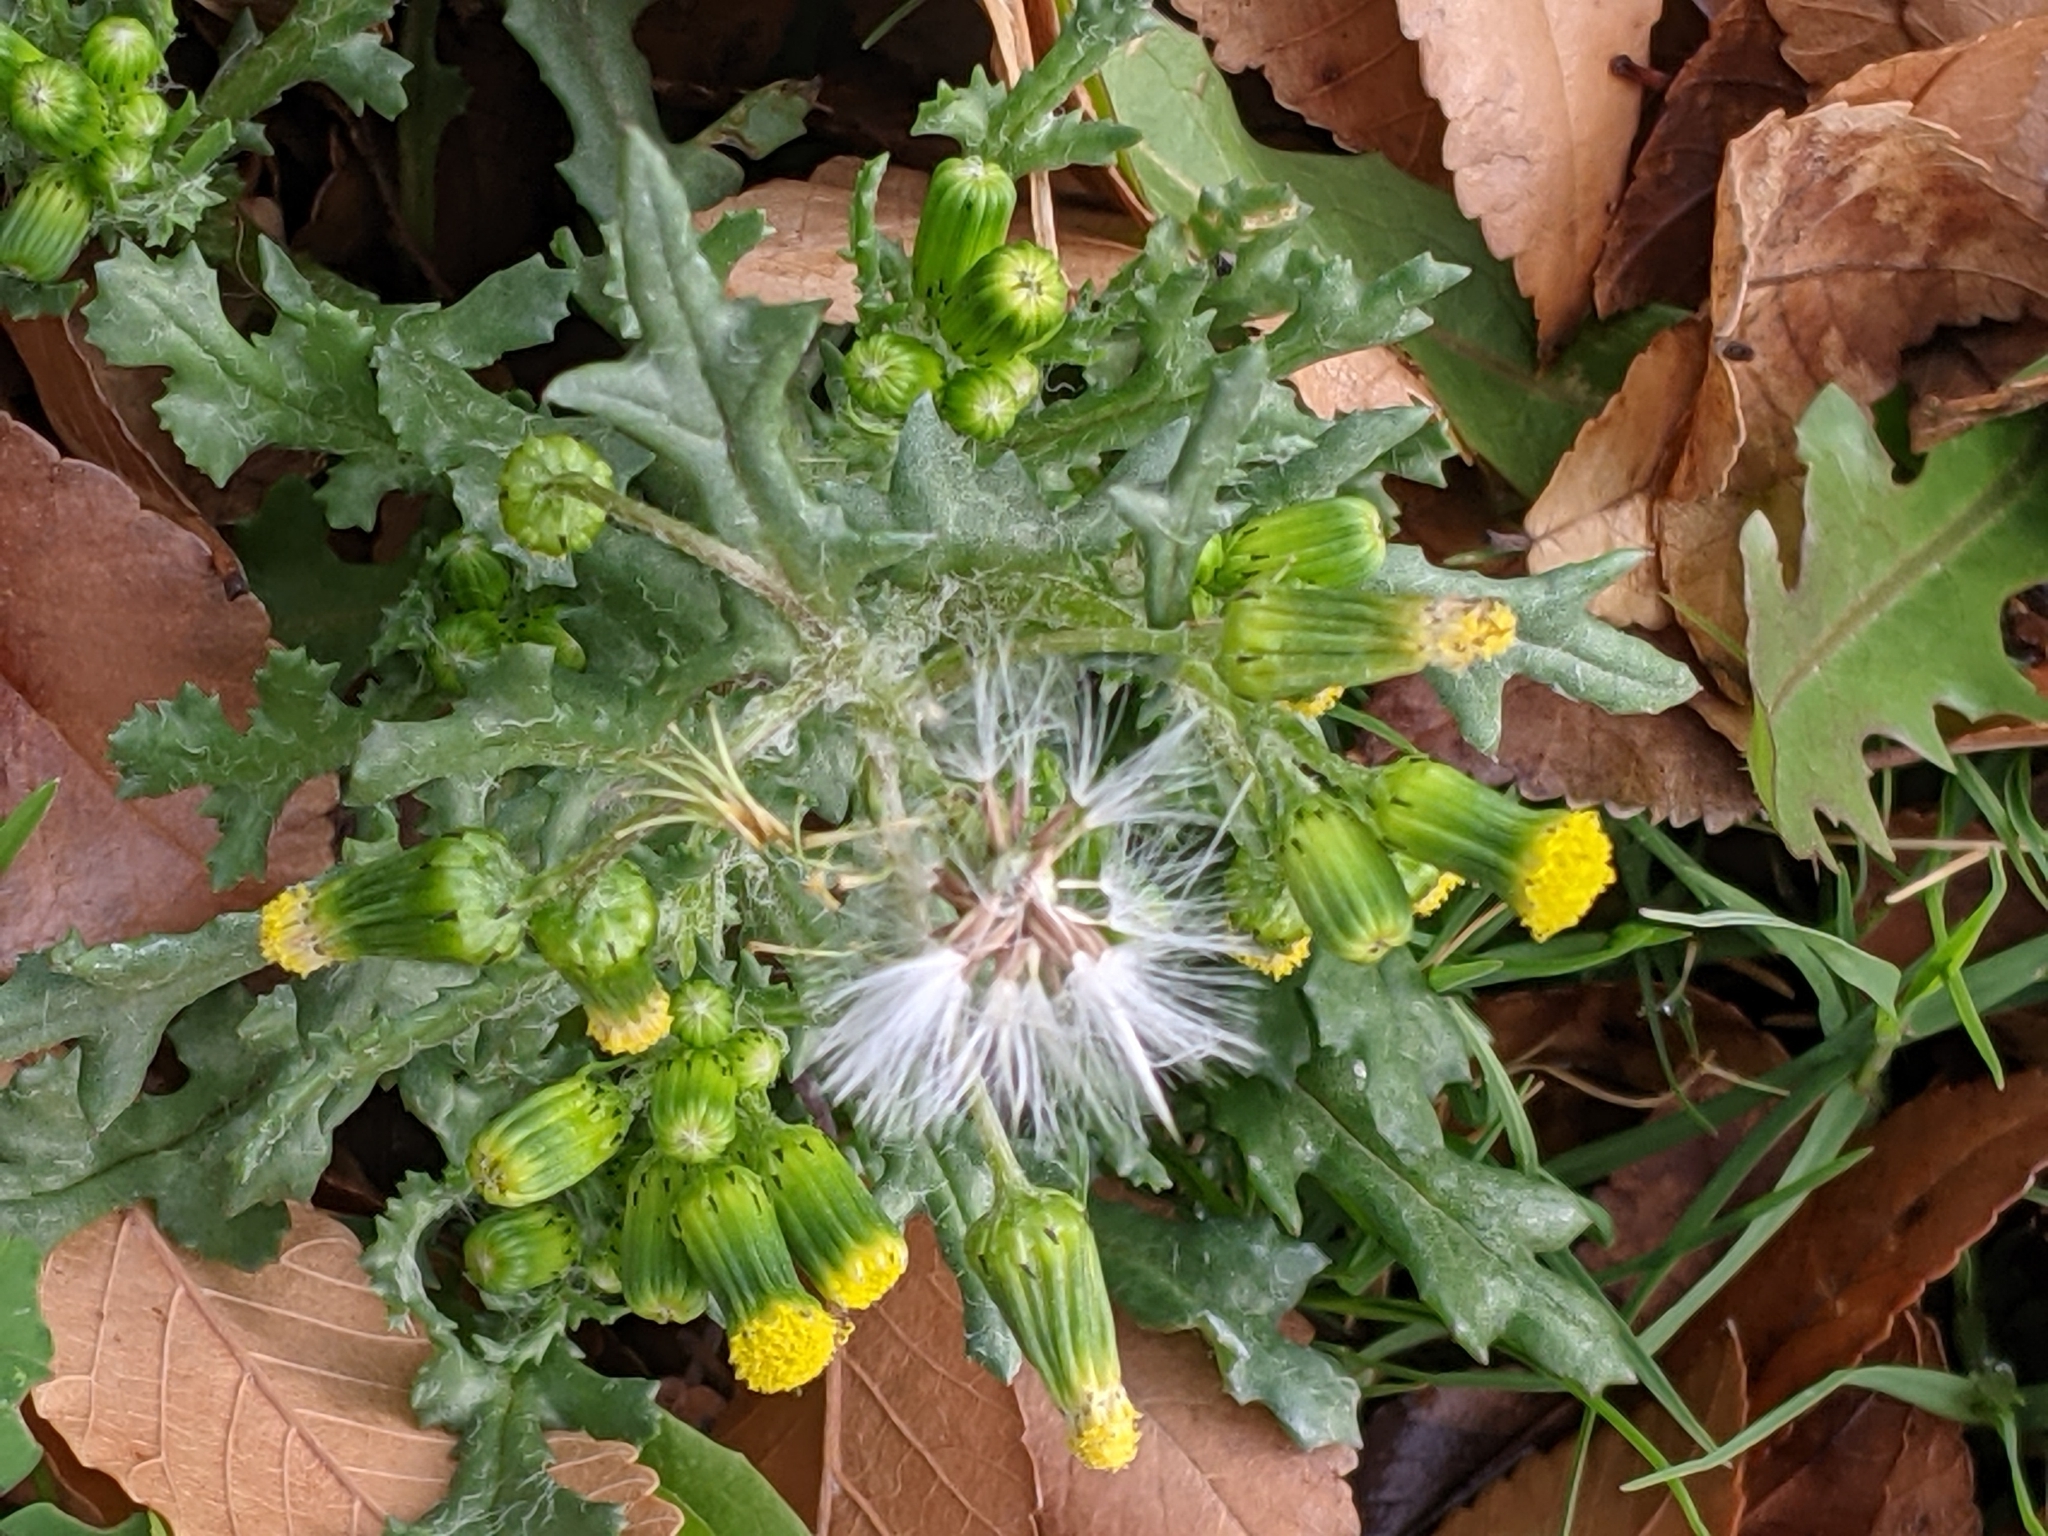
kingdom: Plantae
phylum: Tracheophyta
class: Magnoliopsida
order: Asterales
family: Asteraceae
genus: Senecio
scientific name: Senecio vulgaris
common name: Old-man-in-the-spring
